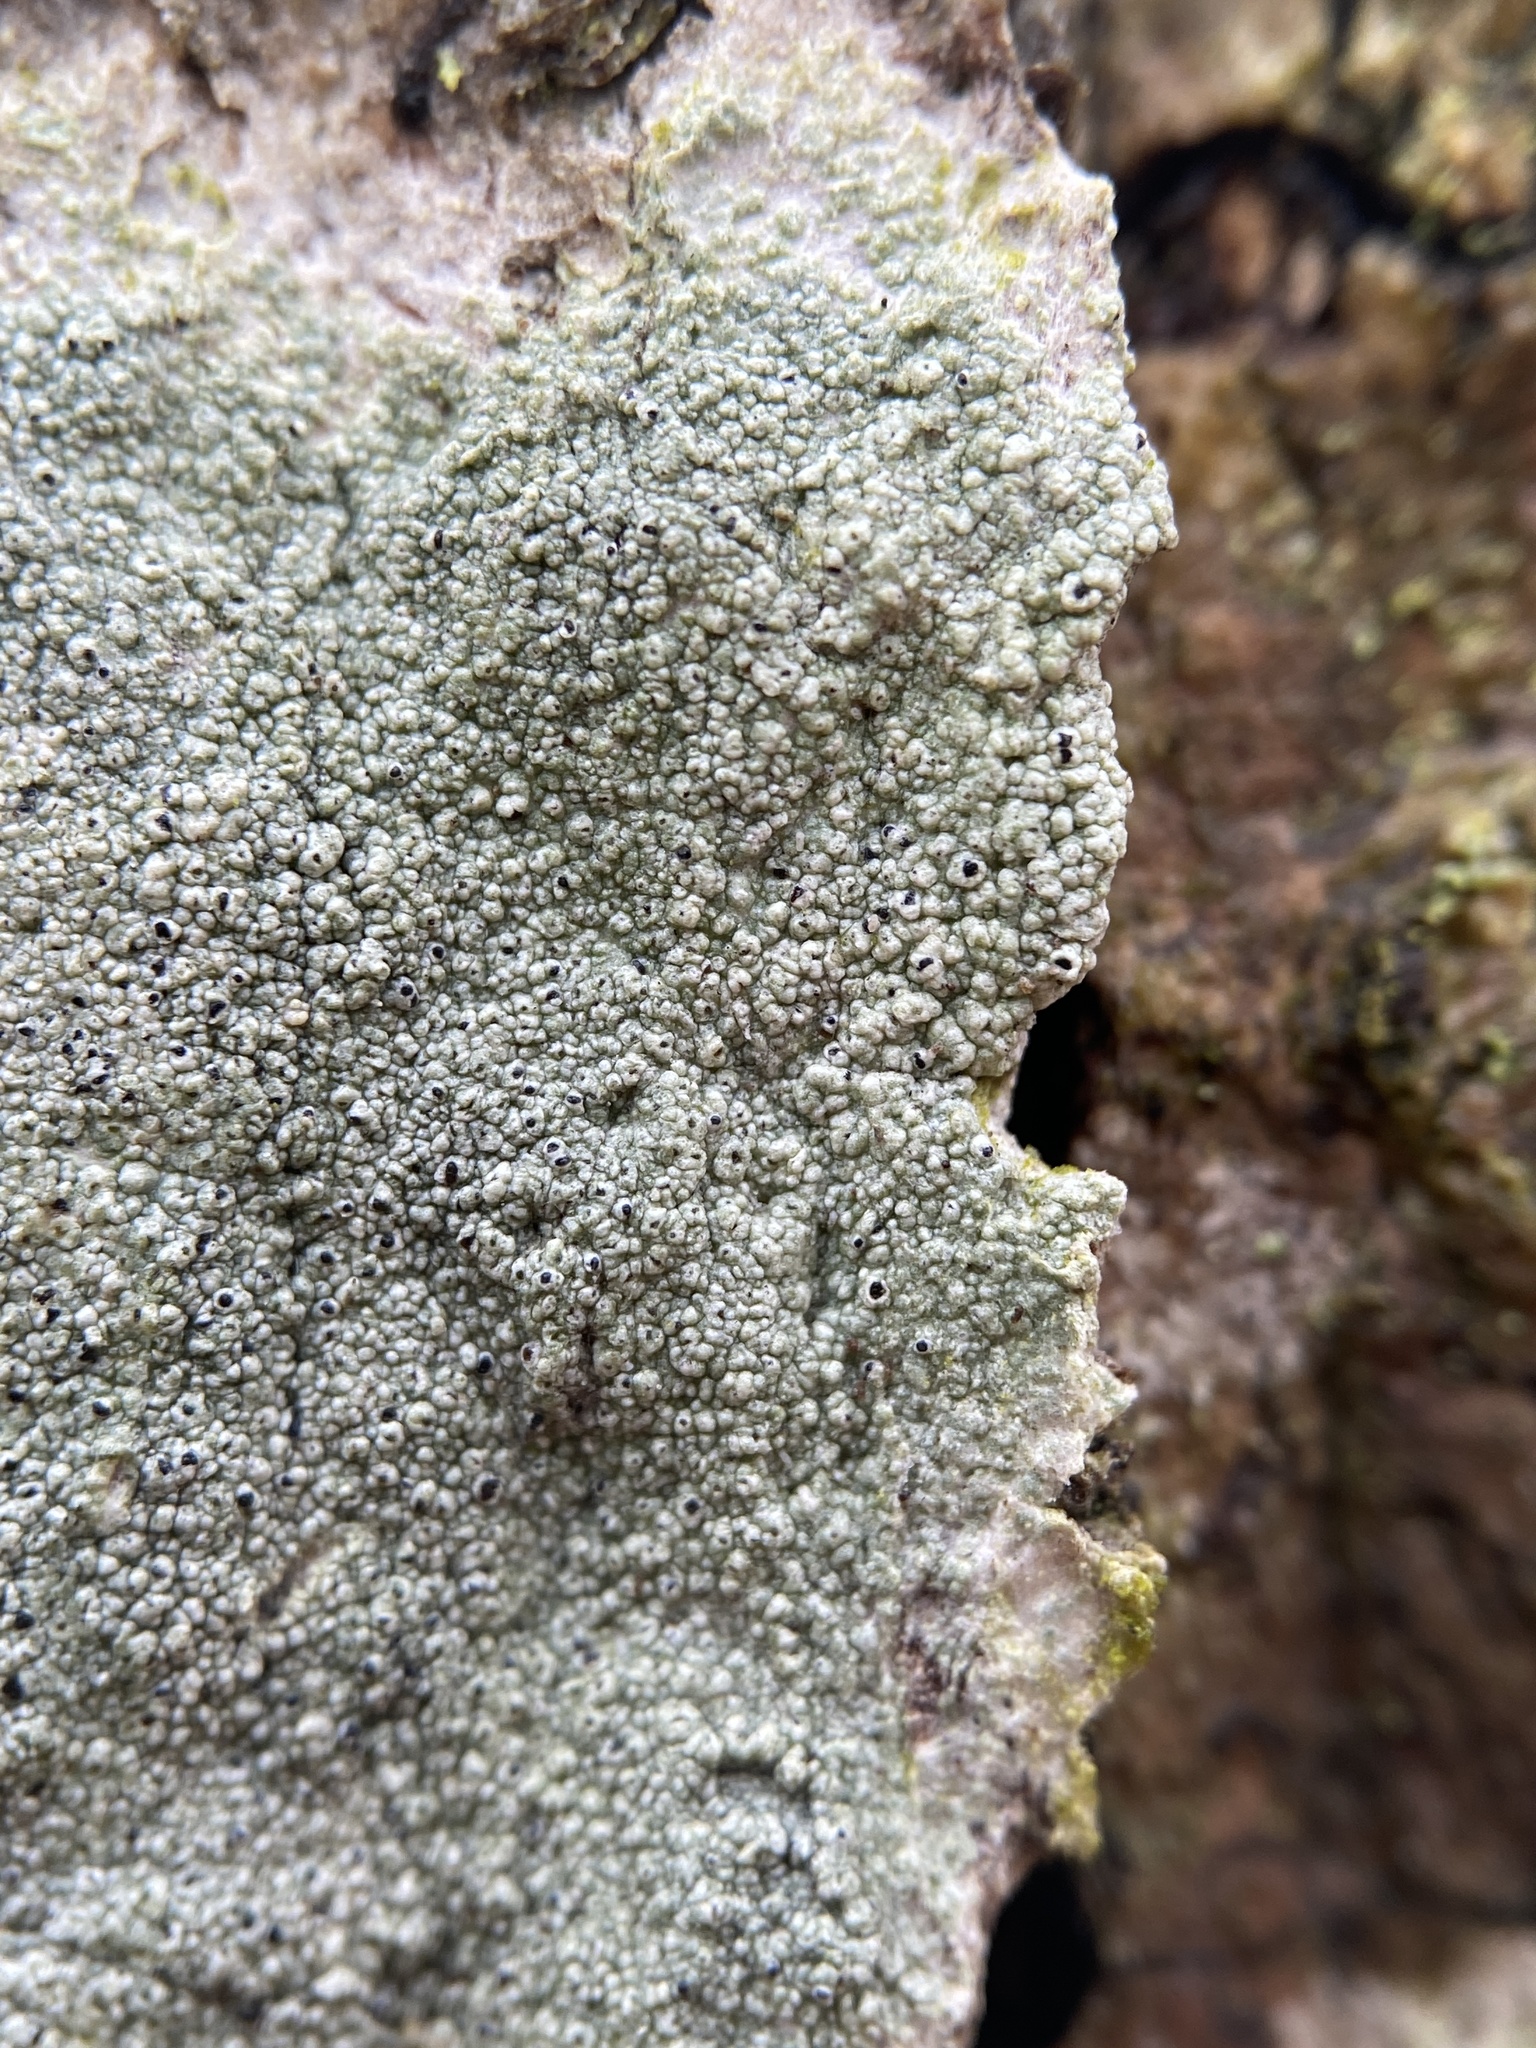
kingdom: Fungi
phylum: Ascomycota
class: Lecanoromycetes
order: Lecanorales
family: Lecanoraceae
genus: Lecanora
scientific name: Lecanora hybocarpa
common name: Bumpy rim-lichen
